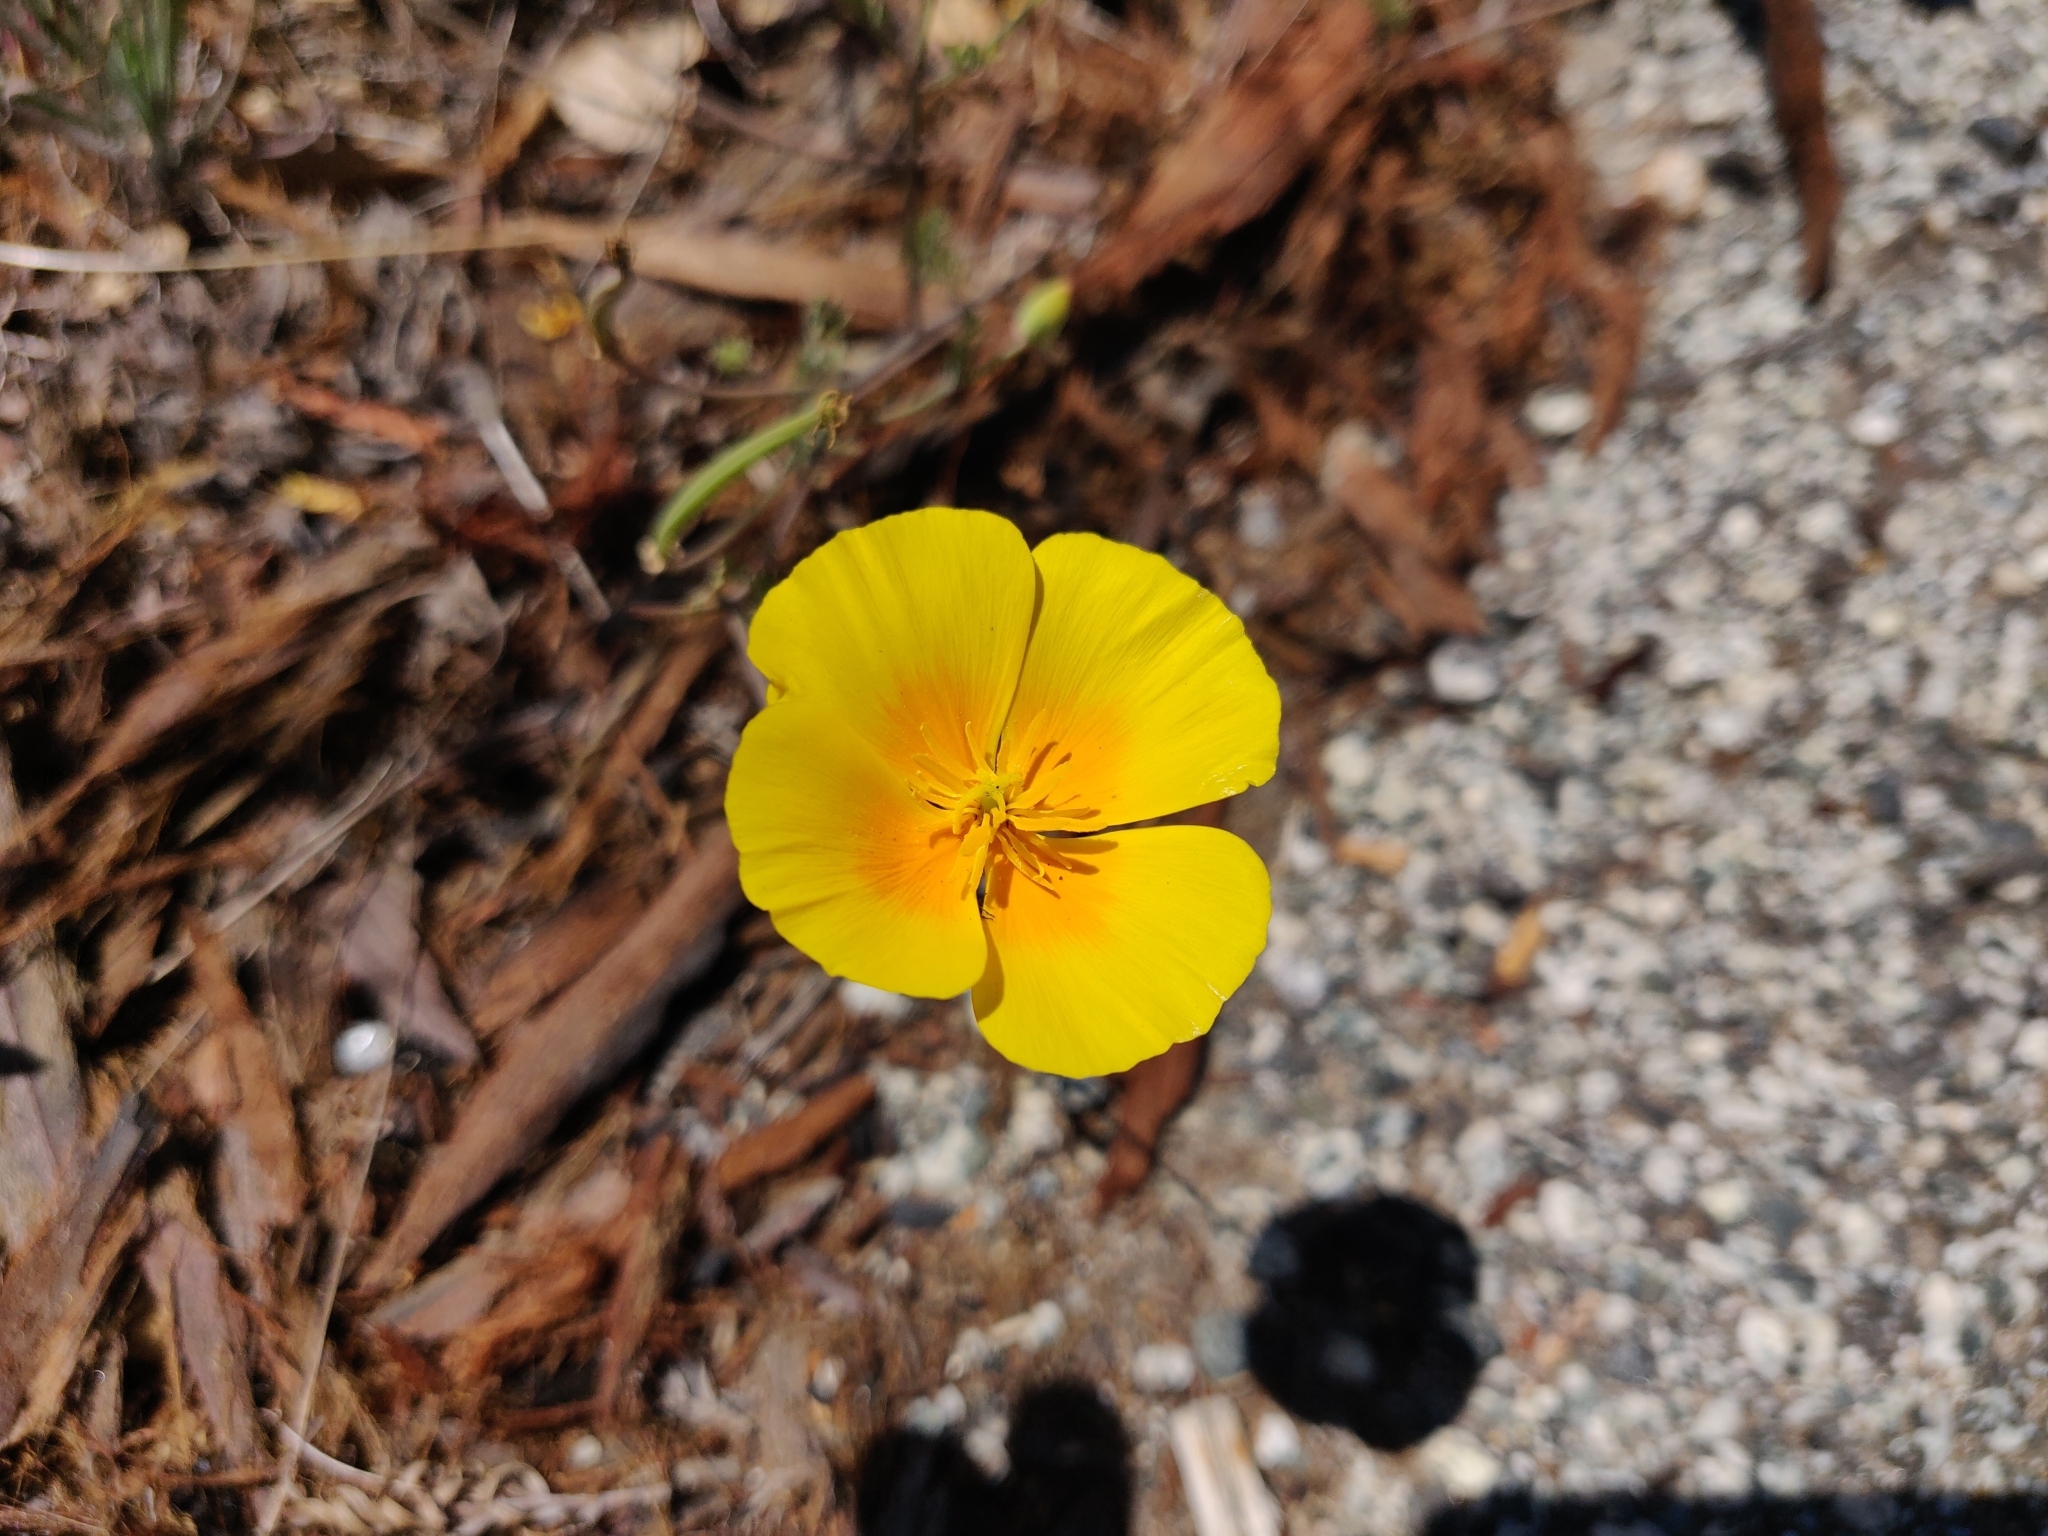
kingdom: Plantae
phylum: Tracheophyta
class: Magnoliopsida
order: Ranunculales
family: Papaveraceae
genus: Eschscholzia
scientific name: Eschscholzia californica
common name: California poppy
